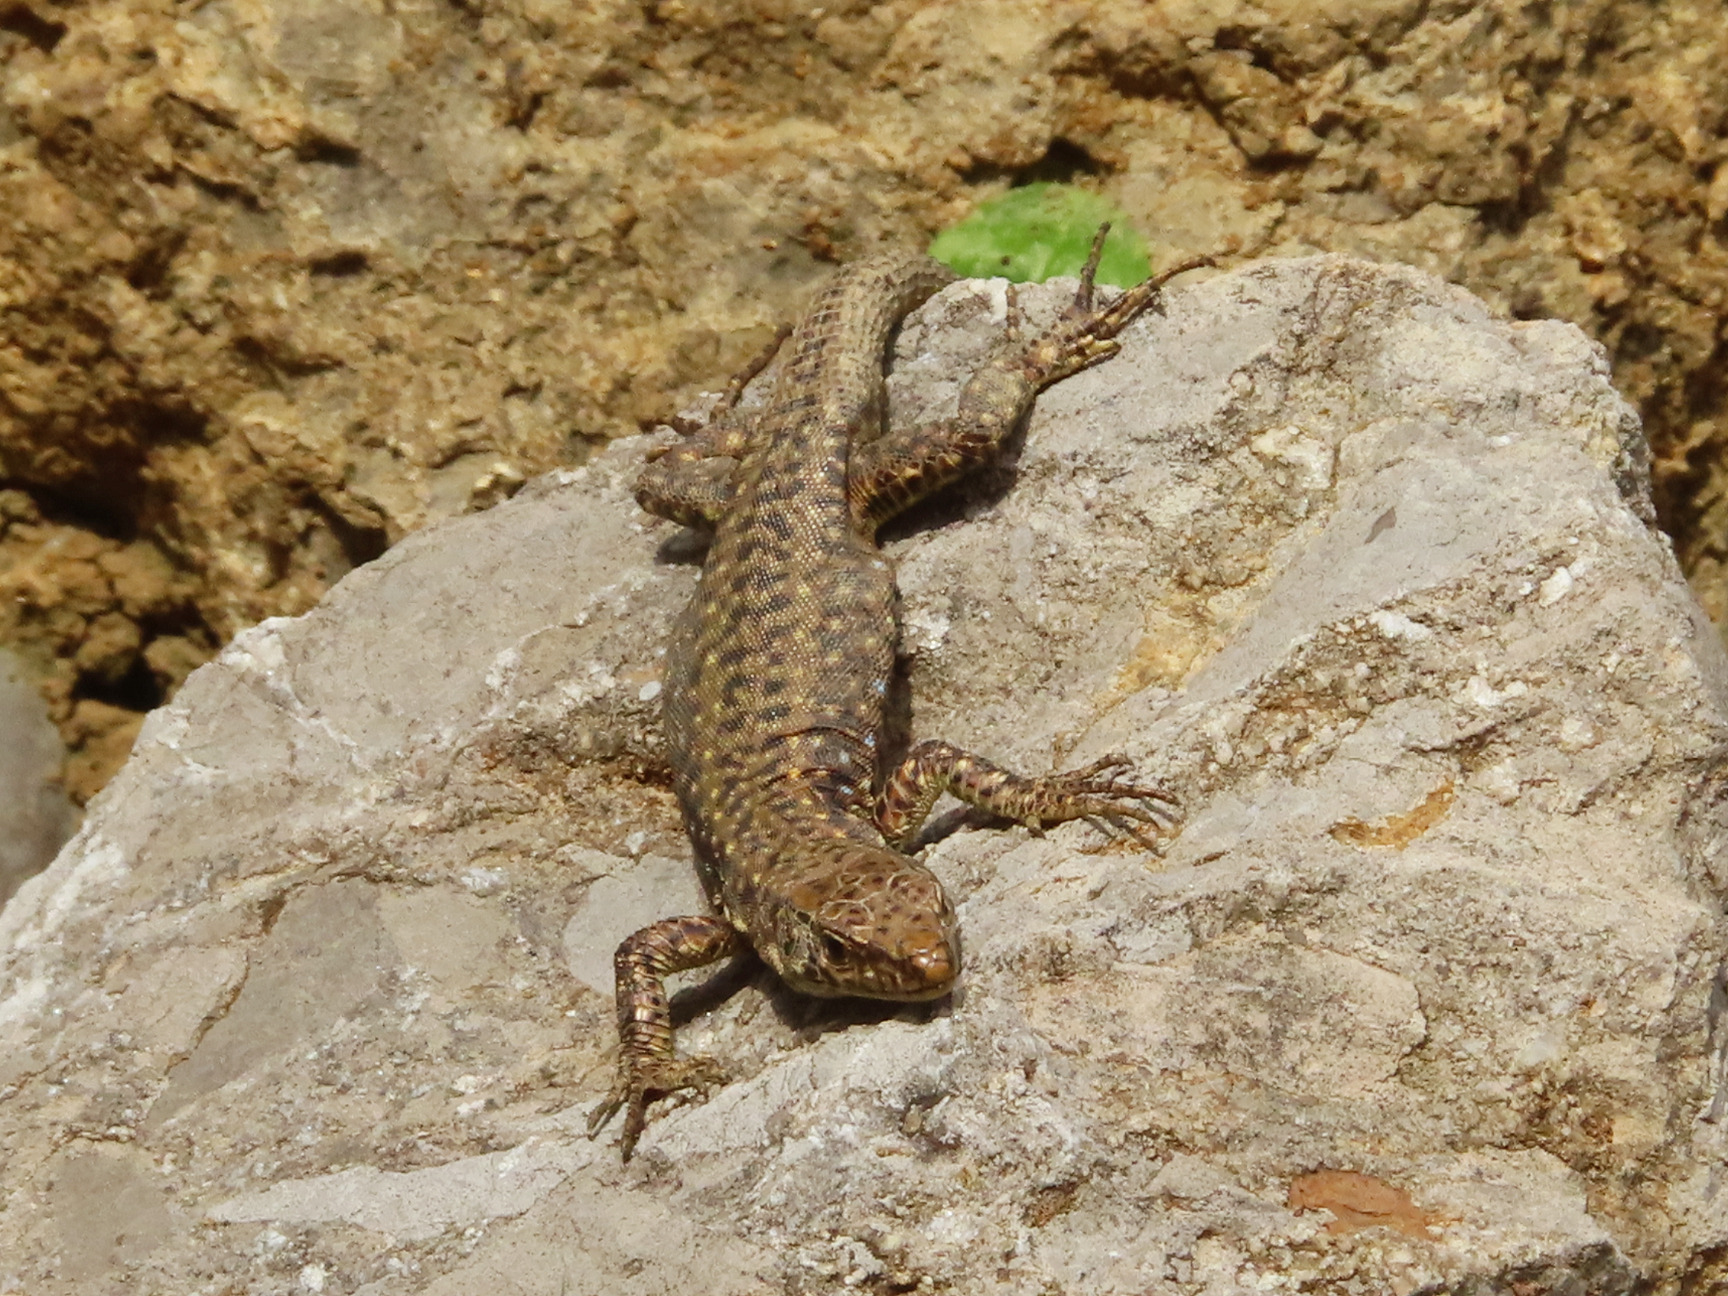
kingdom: Animalia
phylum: Chordata
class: Squamata
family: Lacertidae
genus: Darevskia
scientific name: Darevskia bithynica
